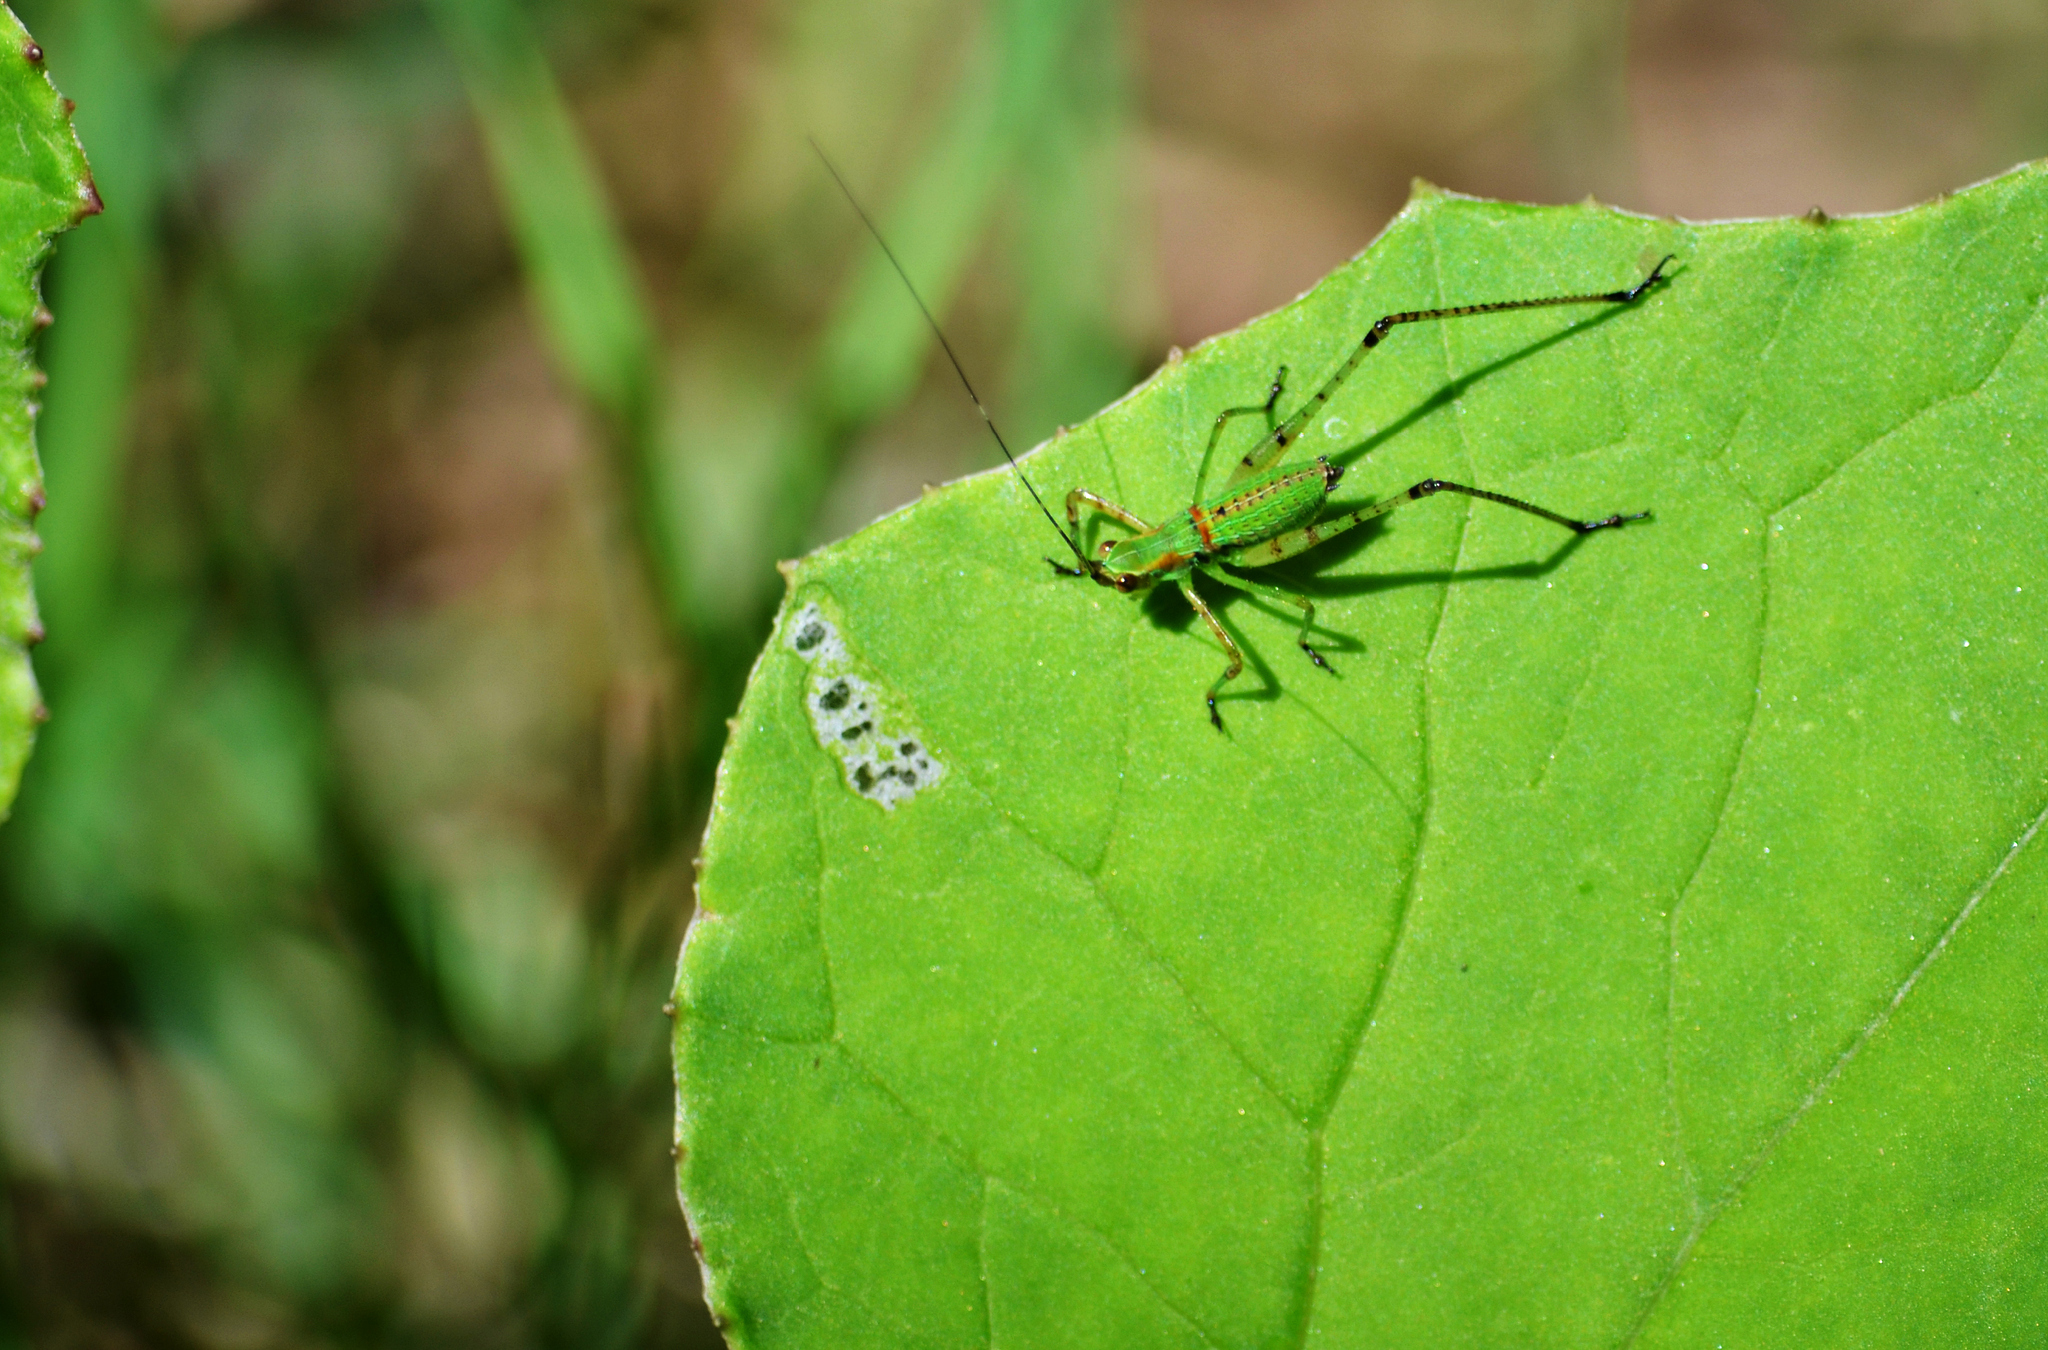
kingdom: Animalia
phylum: Arthropoda
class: Insecta
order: Orthoptera
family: Tettigoniidae
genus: Scudderia
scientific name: Scudderia furcata
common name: Fork-tailed bush katydid
